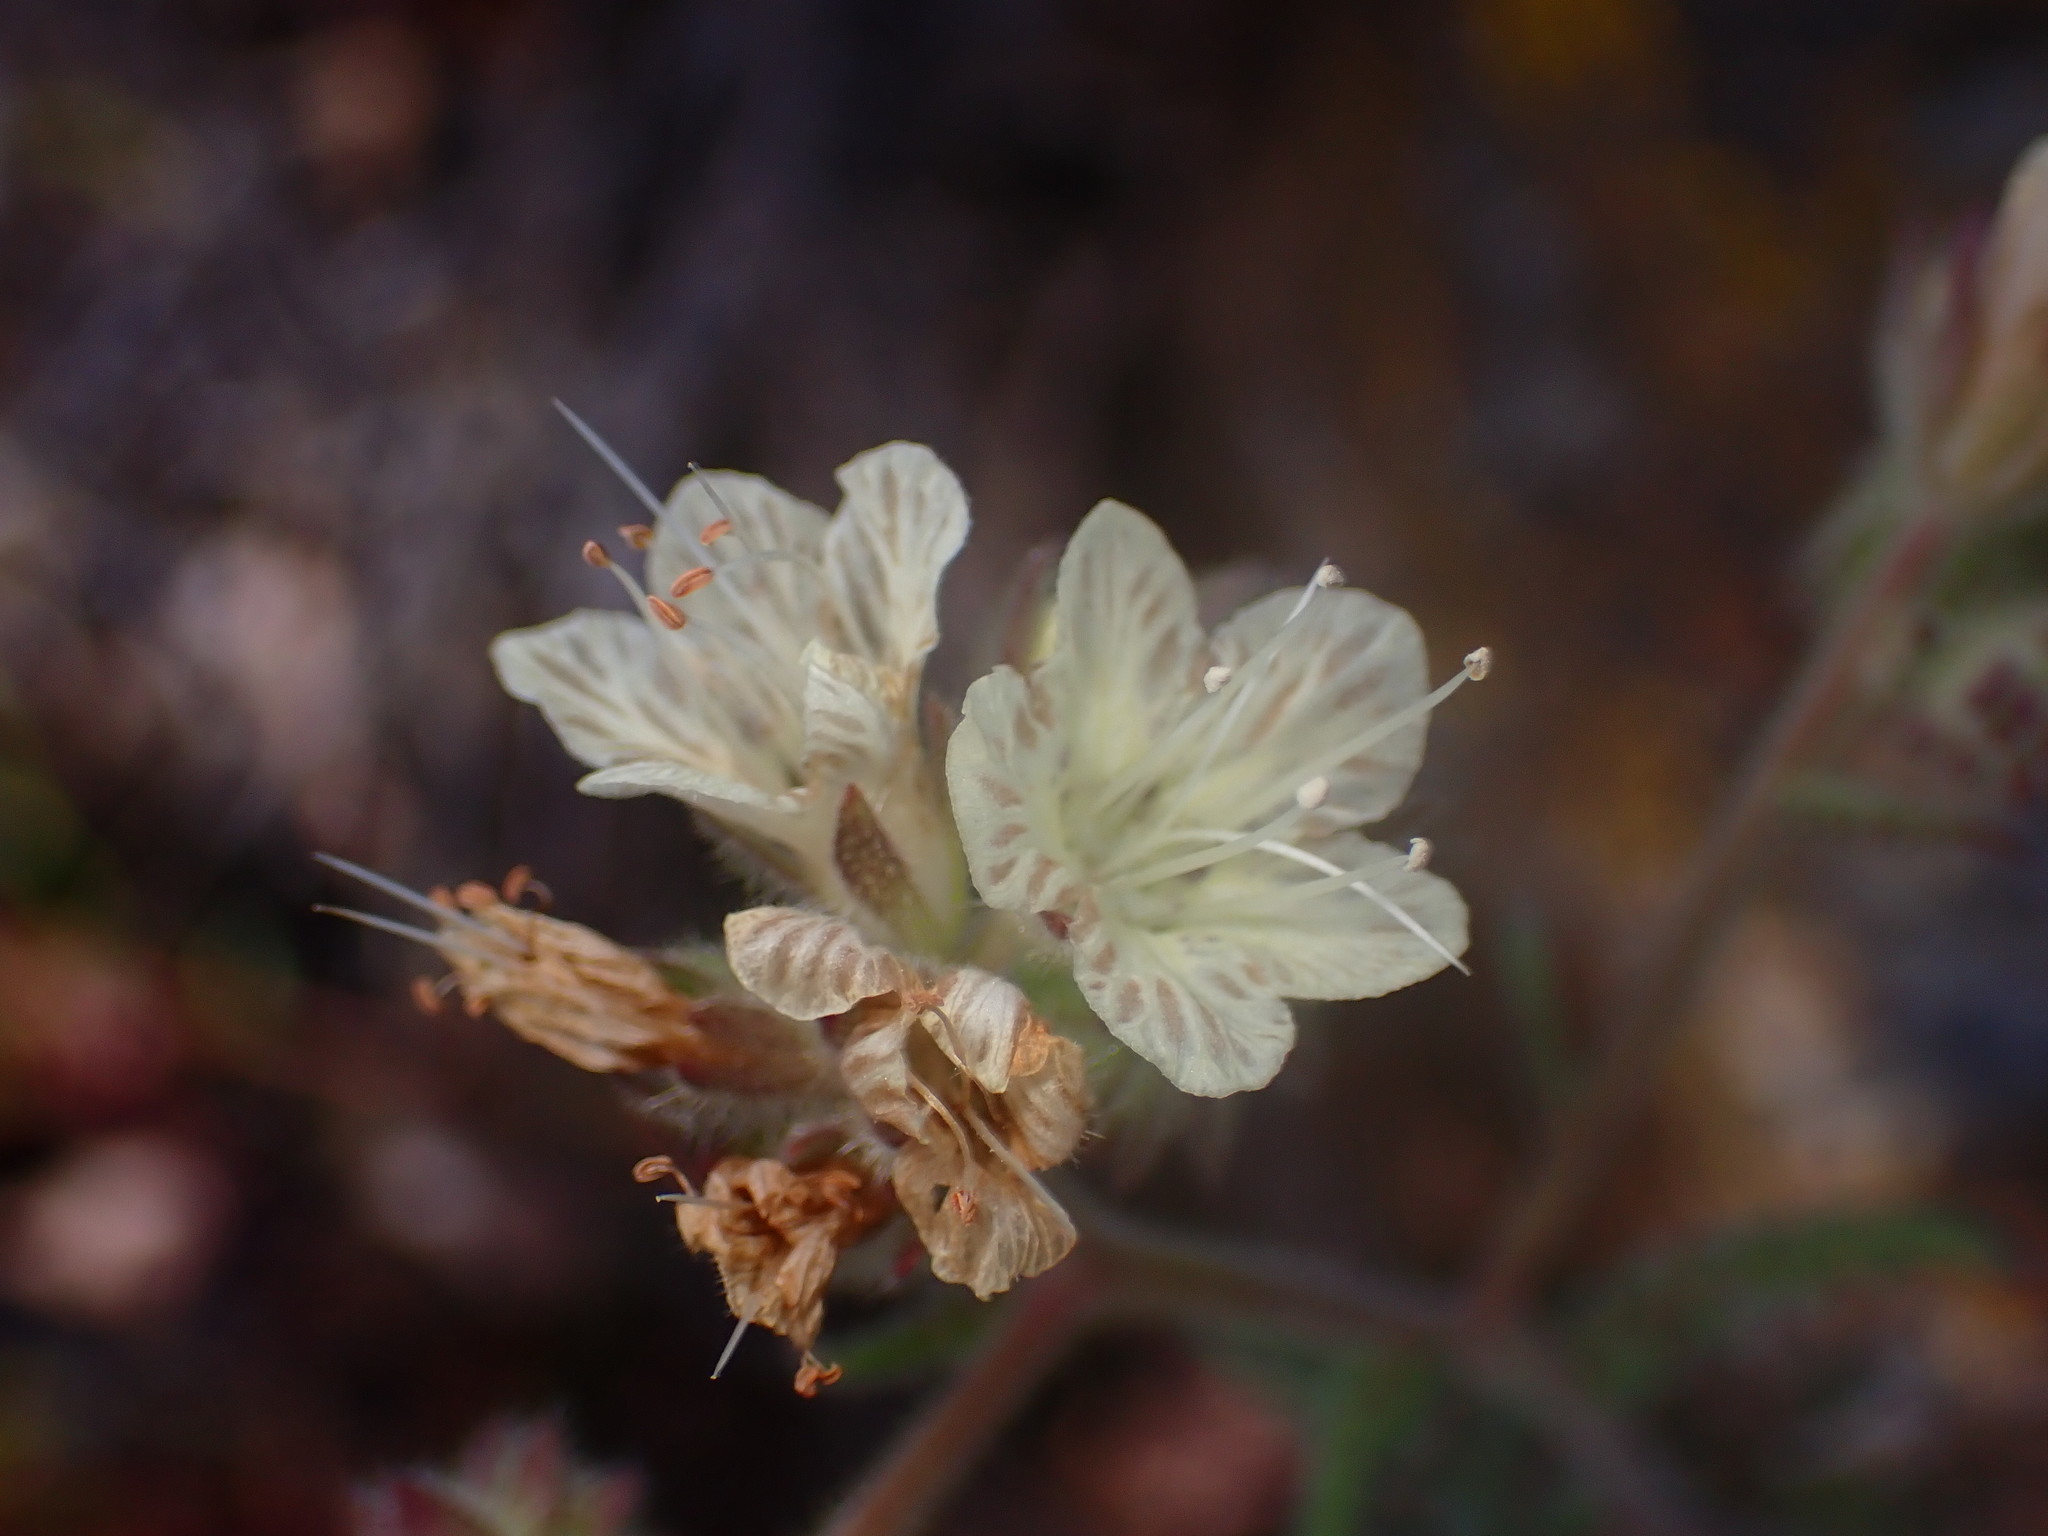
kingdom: Plantae
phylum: Tracheophyta
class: Magnoliopsida
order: Boraginales
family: Hydrophyllaceae
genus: Phacelia
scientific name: Phacelia distans
